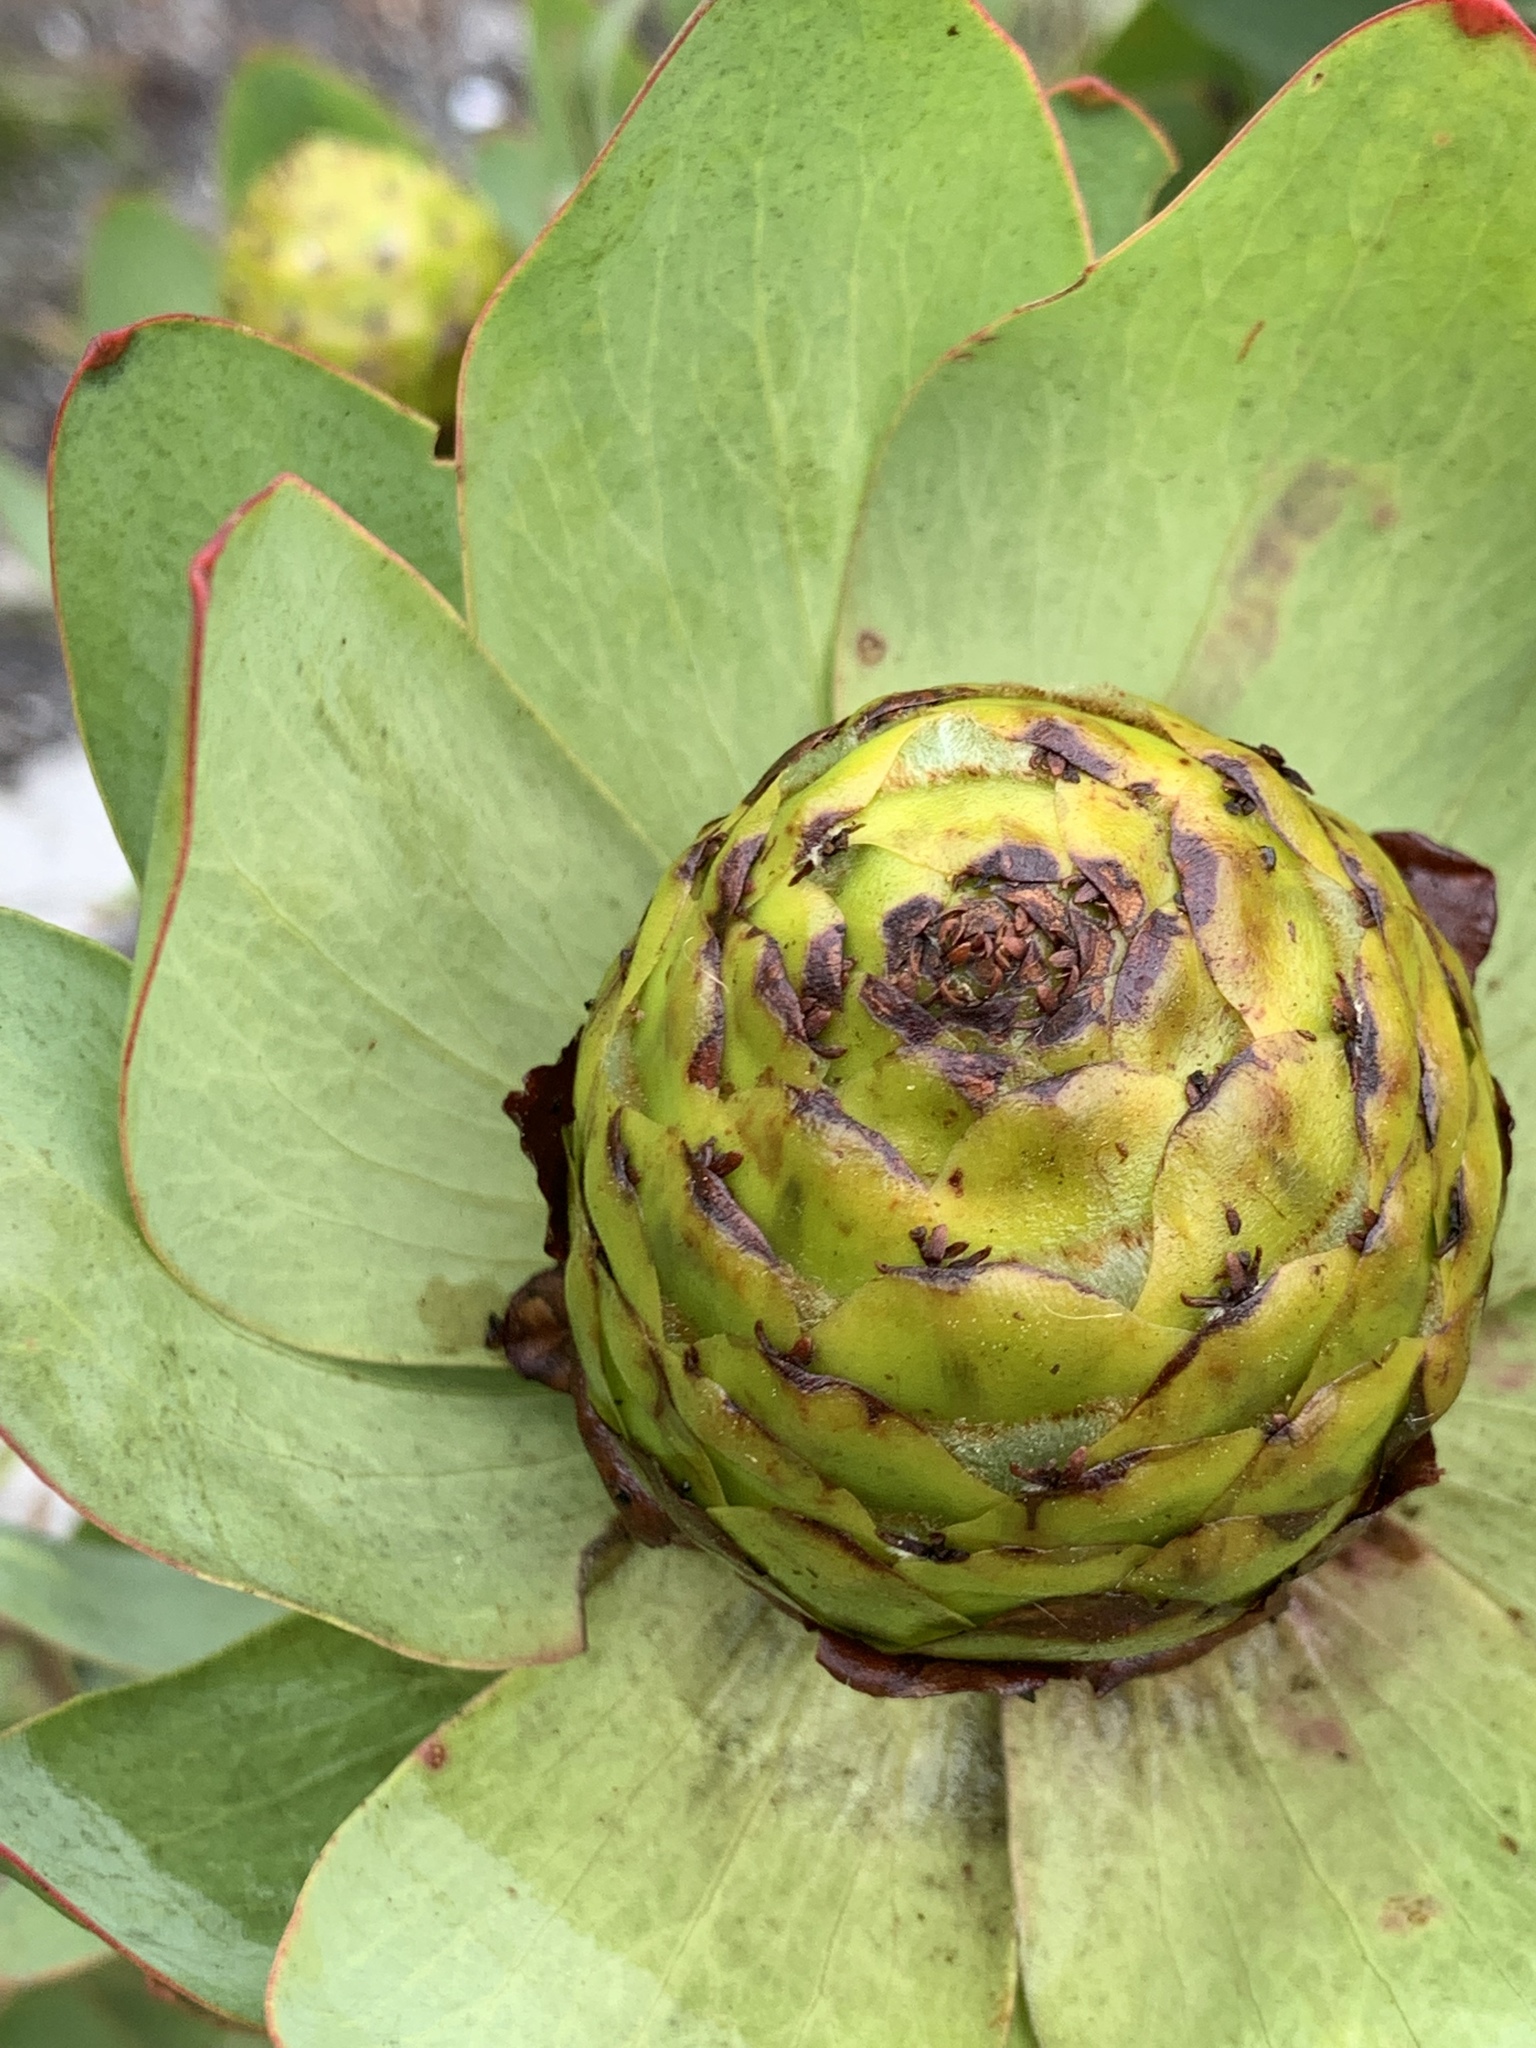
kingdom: Plantae
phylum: Tracheophyta
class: Magnoliopsida
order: Proteales
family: Proteaceae
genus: Leucadendron
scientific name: Leucadendron tinctum
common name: Spicy conebush
